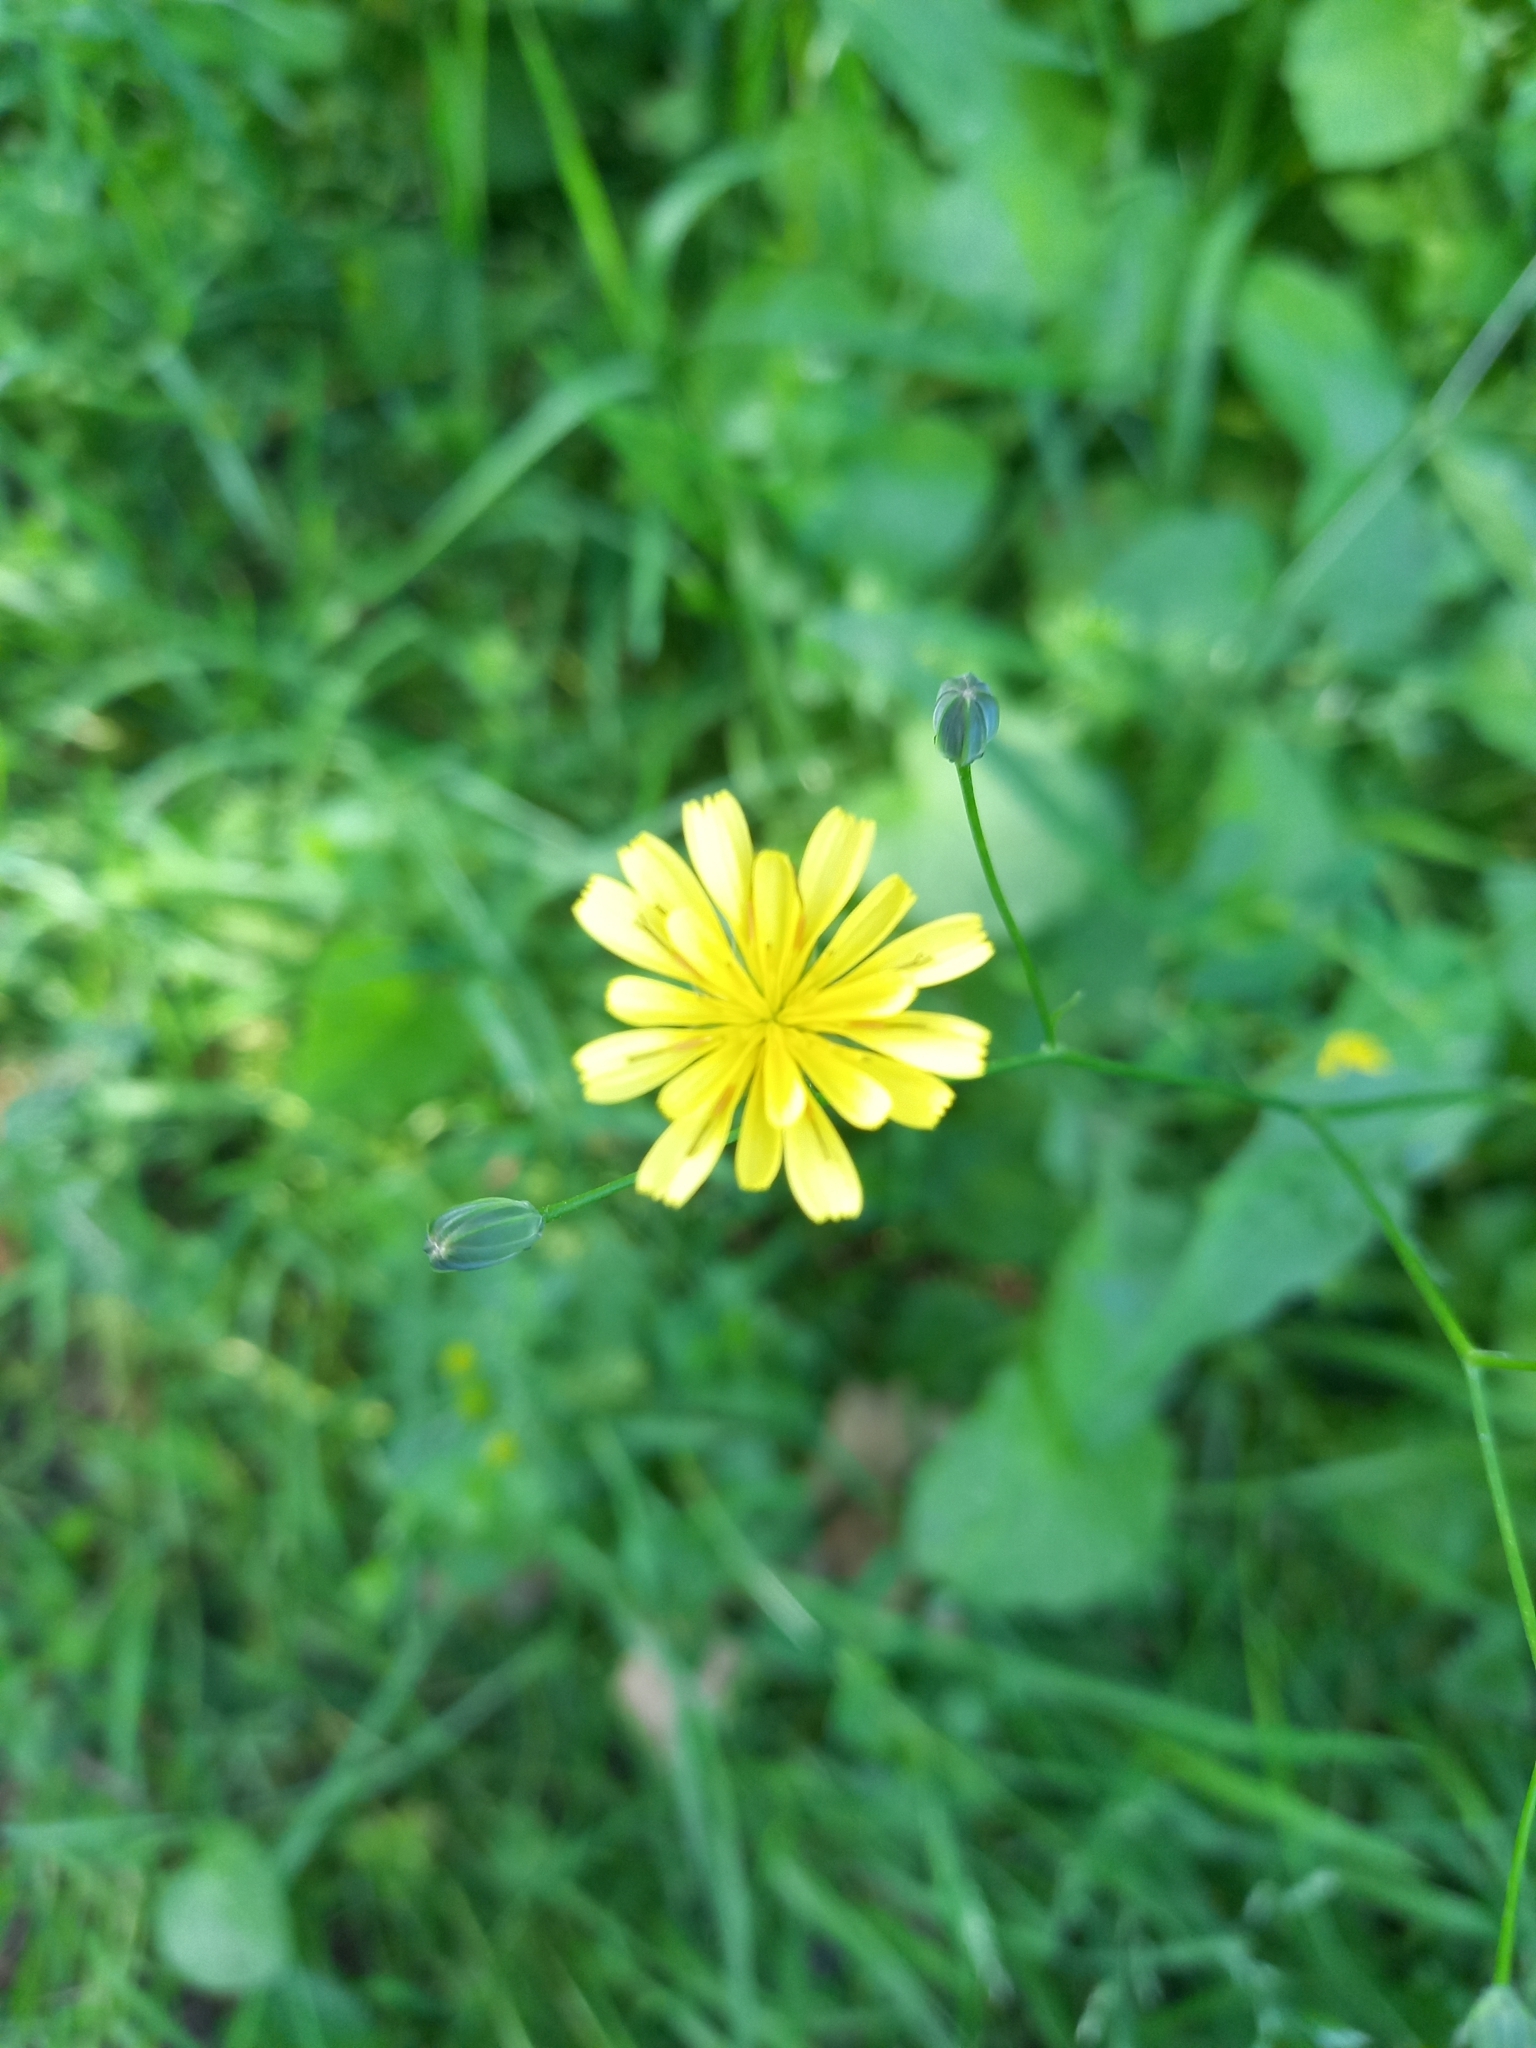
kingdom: Plantae
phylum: Tracheophyta
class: Magnoliopsida
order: Asterales
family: Asteraceae
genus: Lapsana
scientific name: Lapsana communis
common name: Nipplewort
